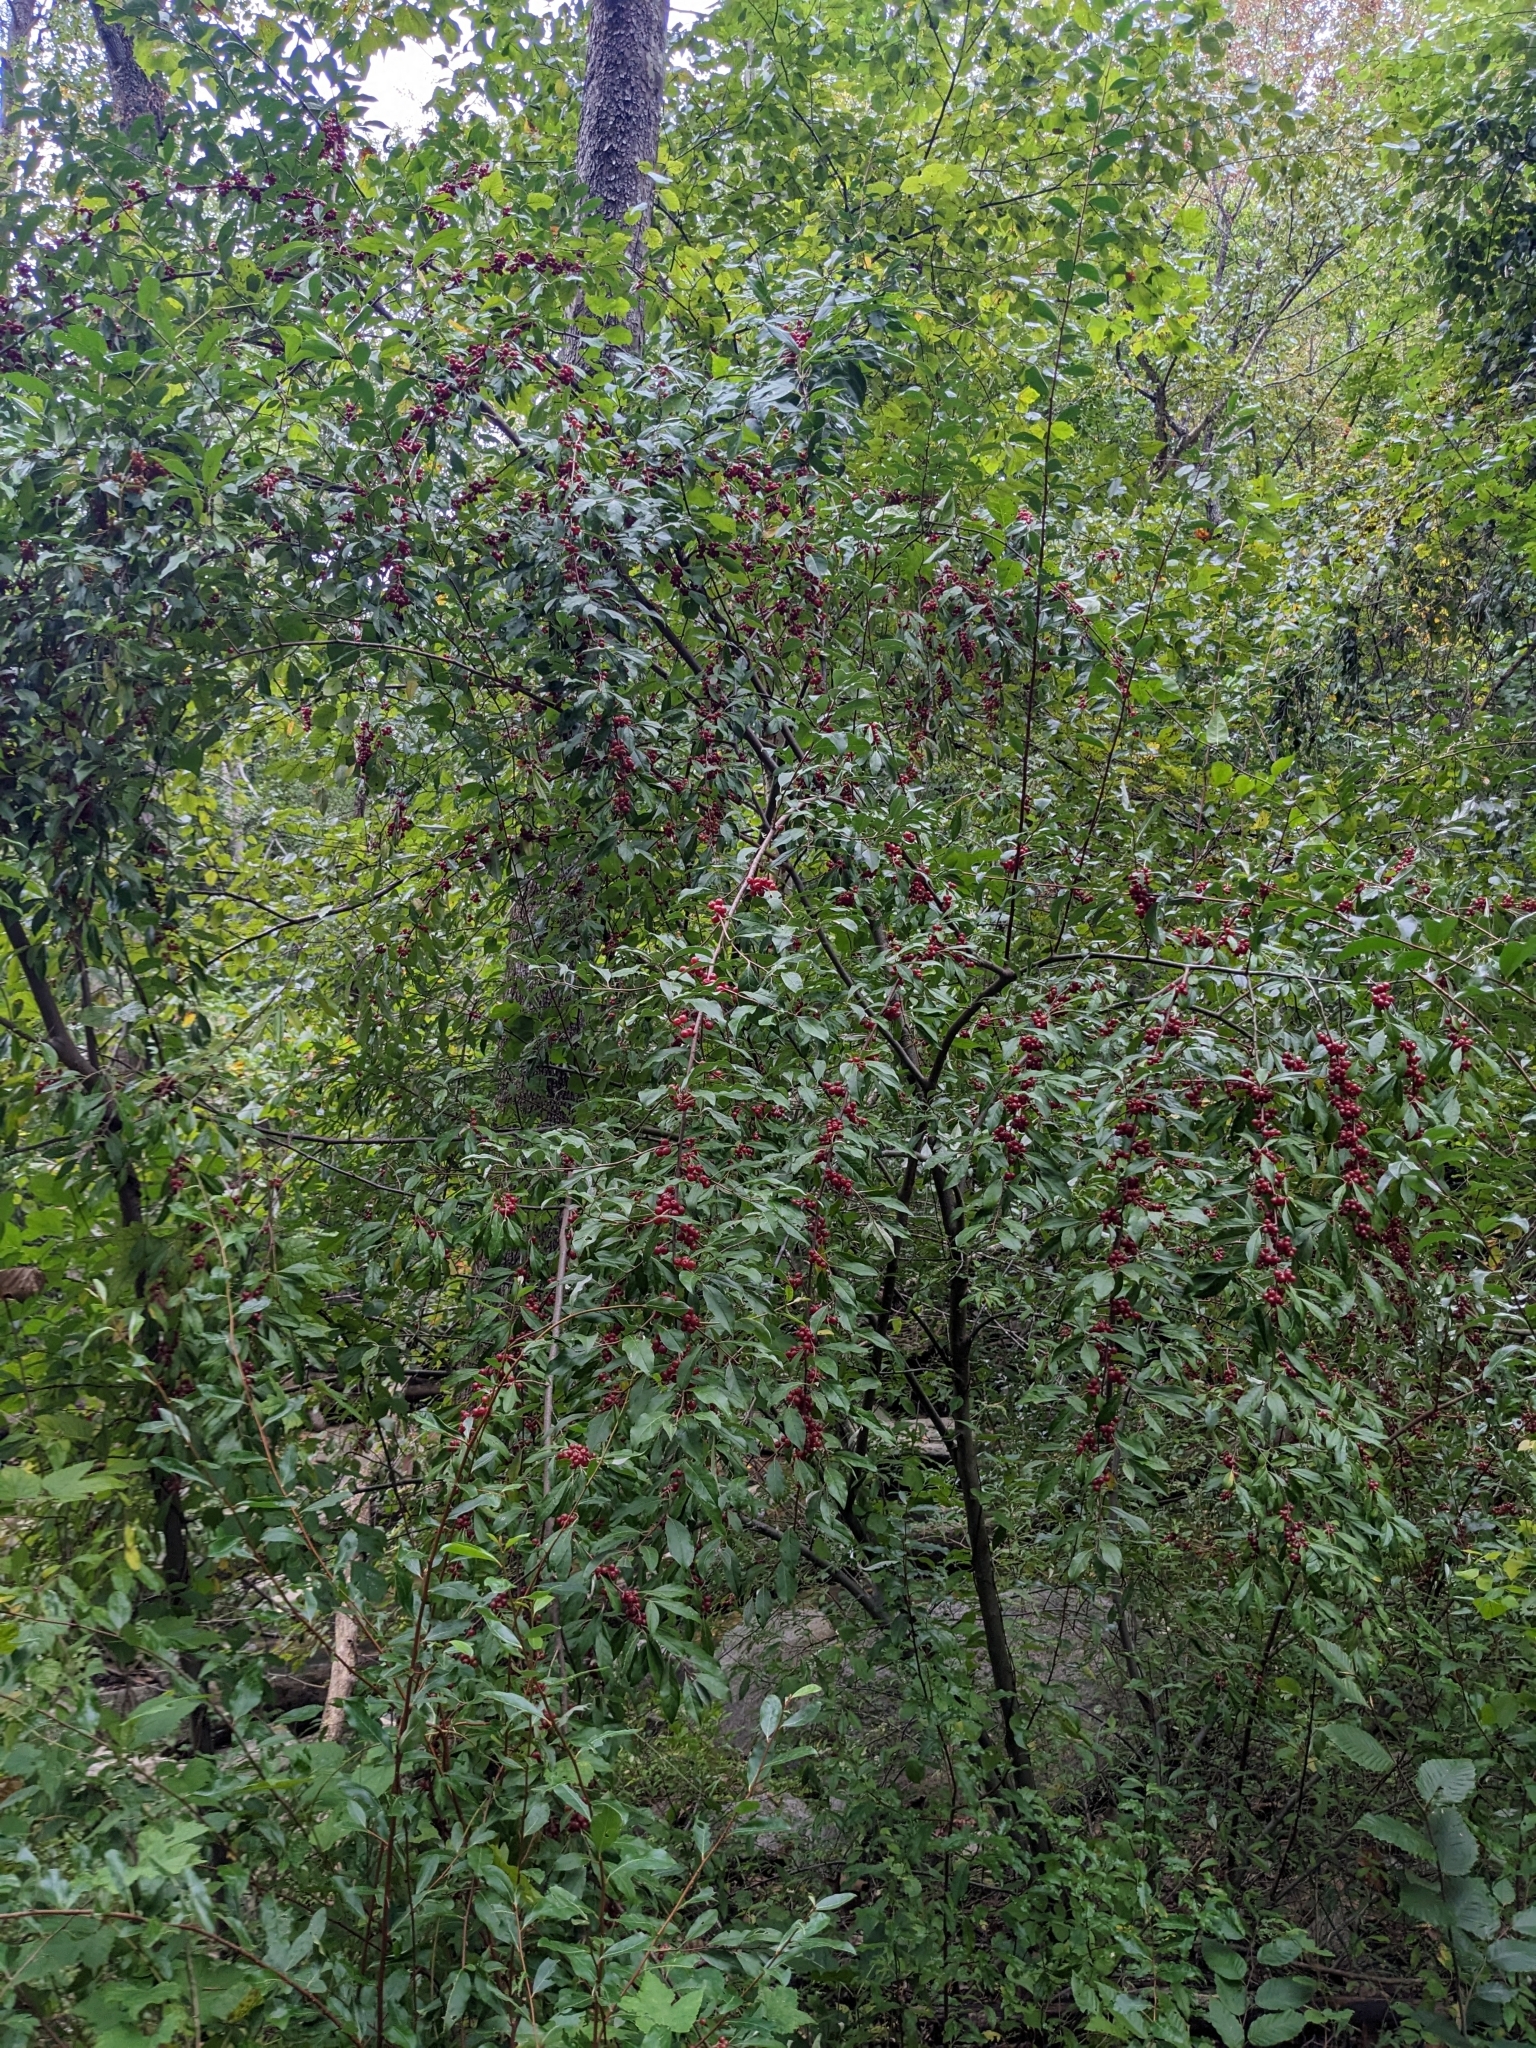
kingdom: Plantae
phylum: Tracheophyta
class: Magnoliopsida
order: Rosales
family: Elaeagnaceae
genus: Elaeagnus
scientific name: Elaeagnus umbellata
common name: Autumn olive
